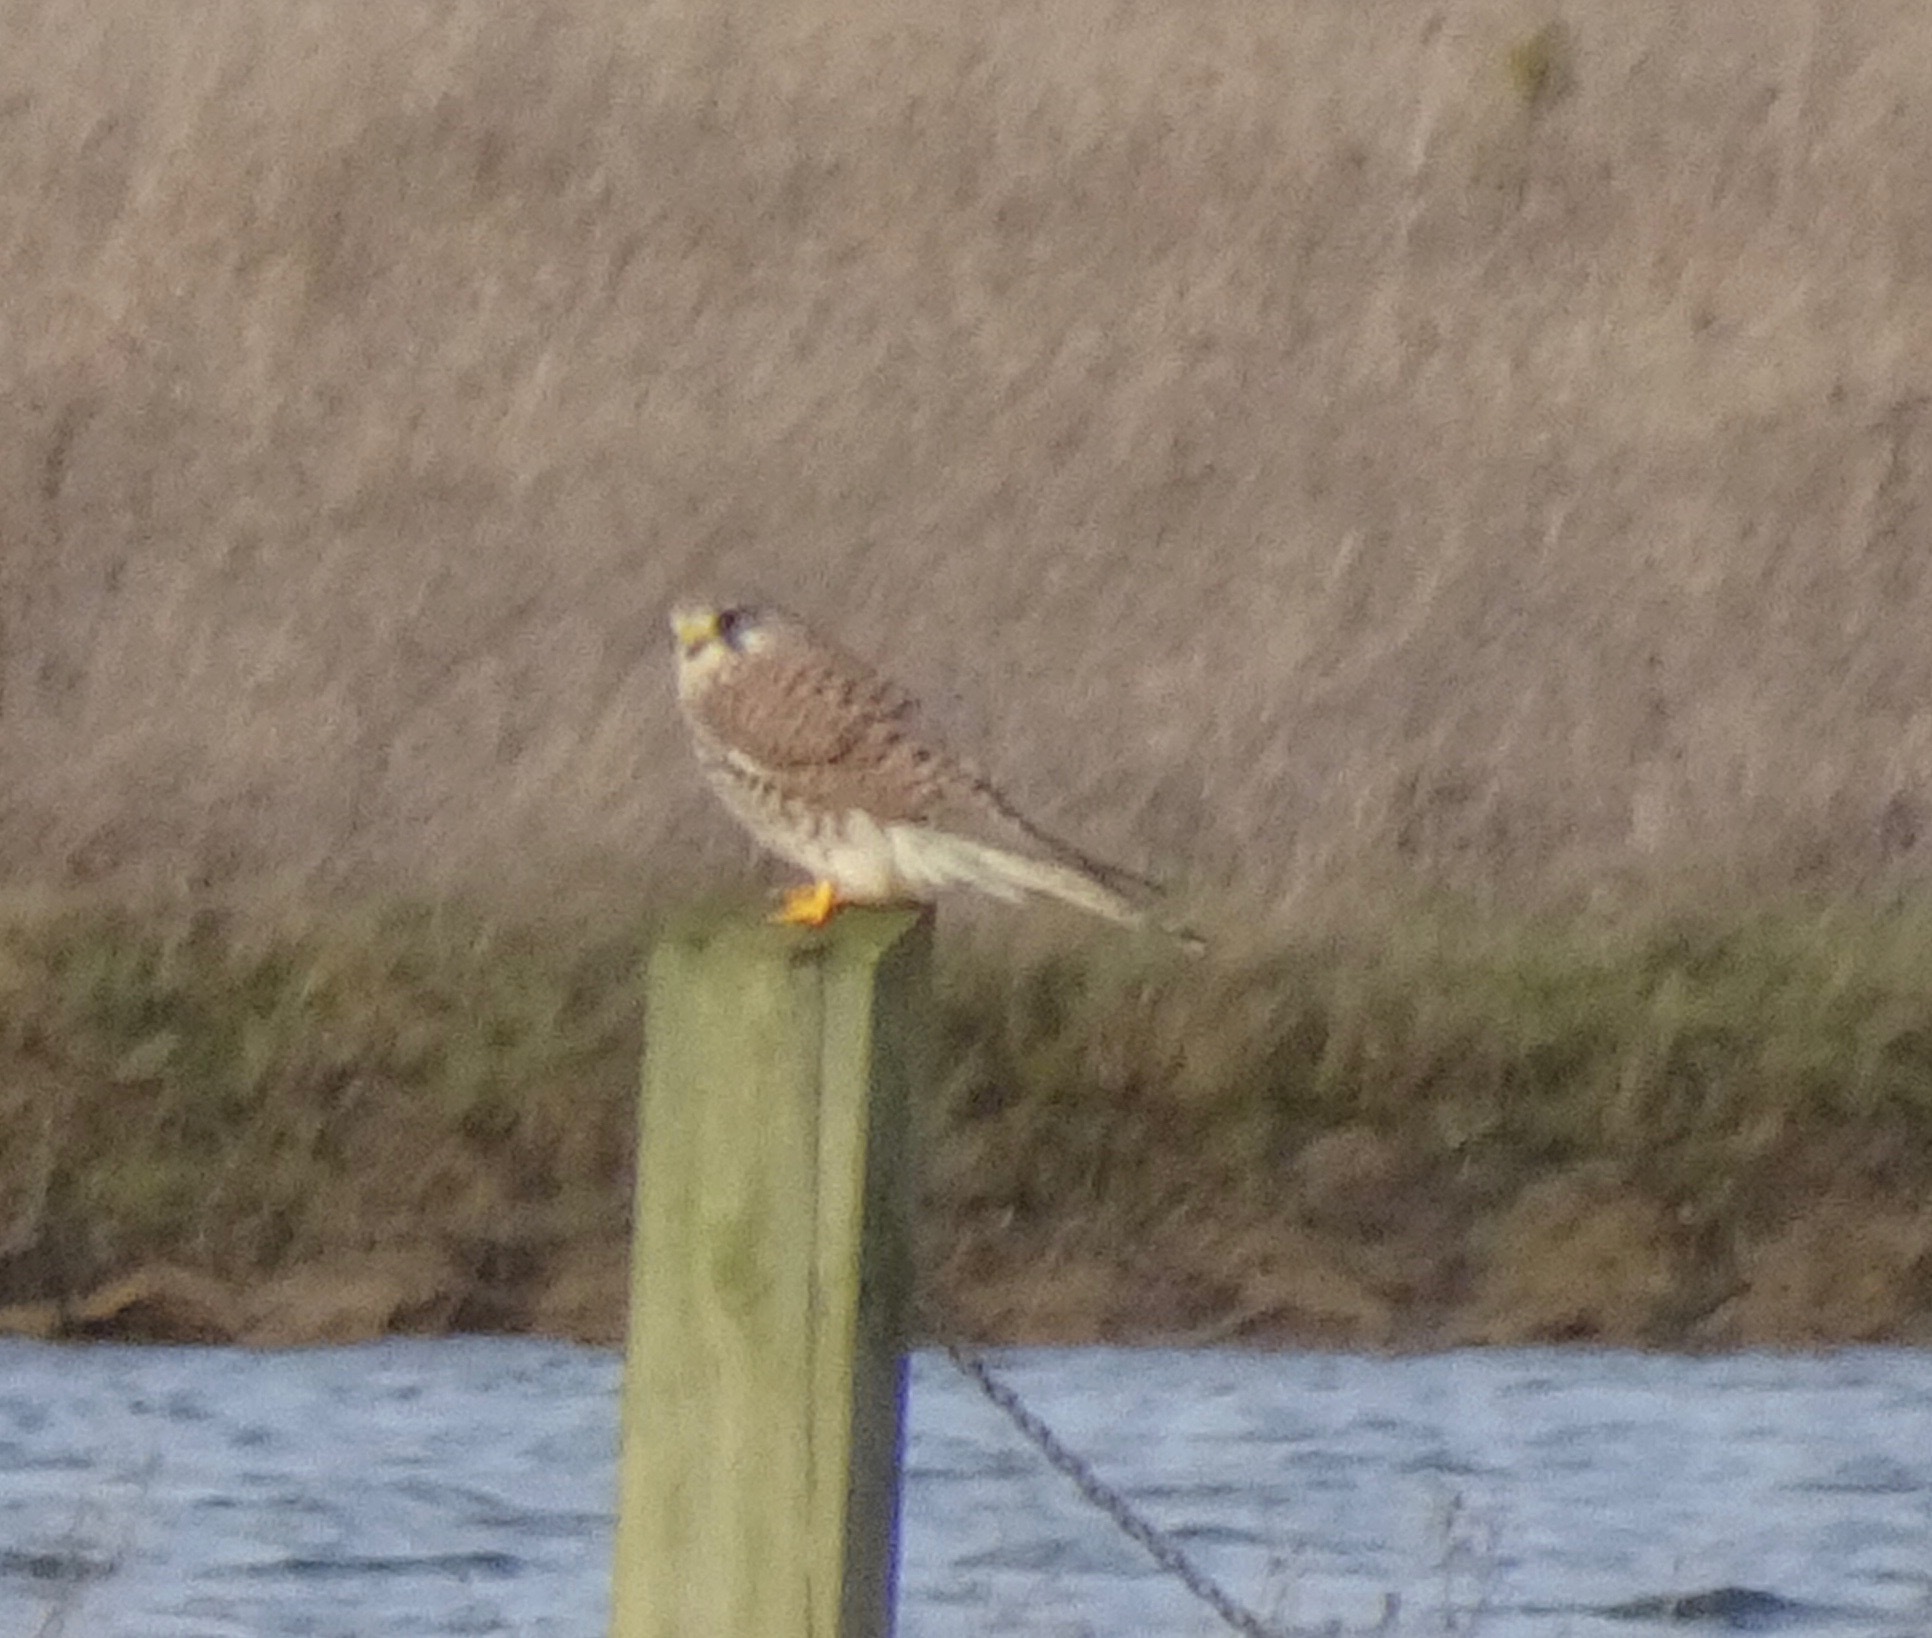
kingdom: Animalia
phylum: Chordata
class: Aves
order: Falconiformes
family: Falconidae
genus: Falco
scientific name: Falco tinnunculus
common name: Common kestrel
